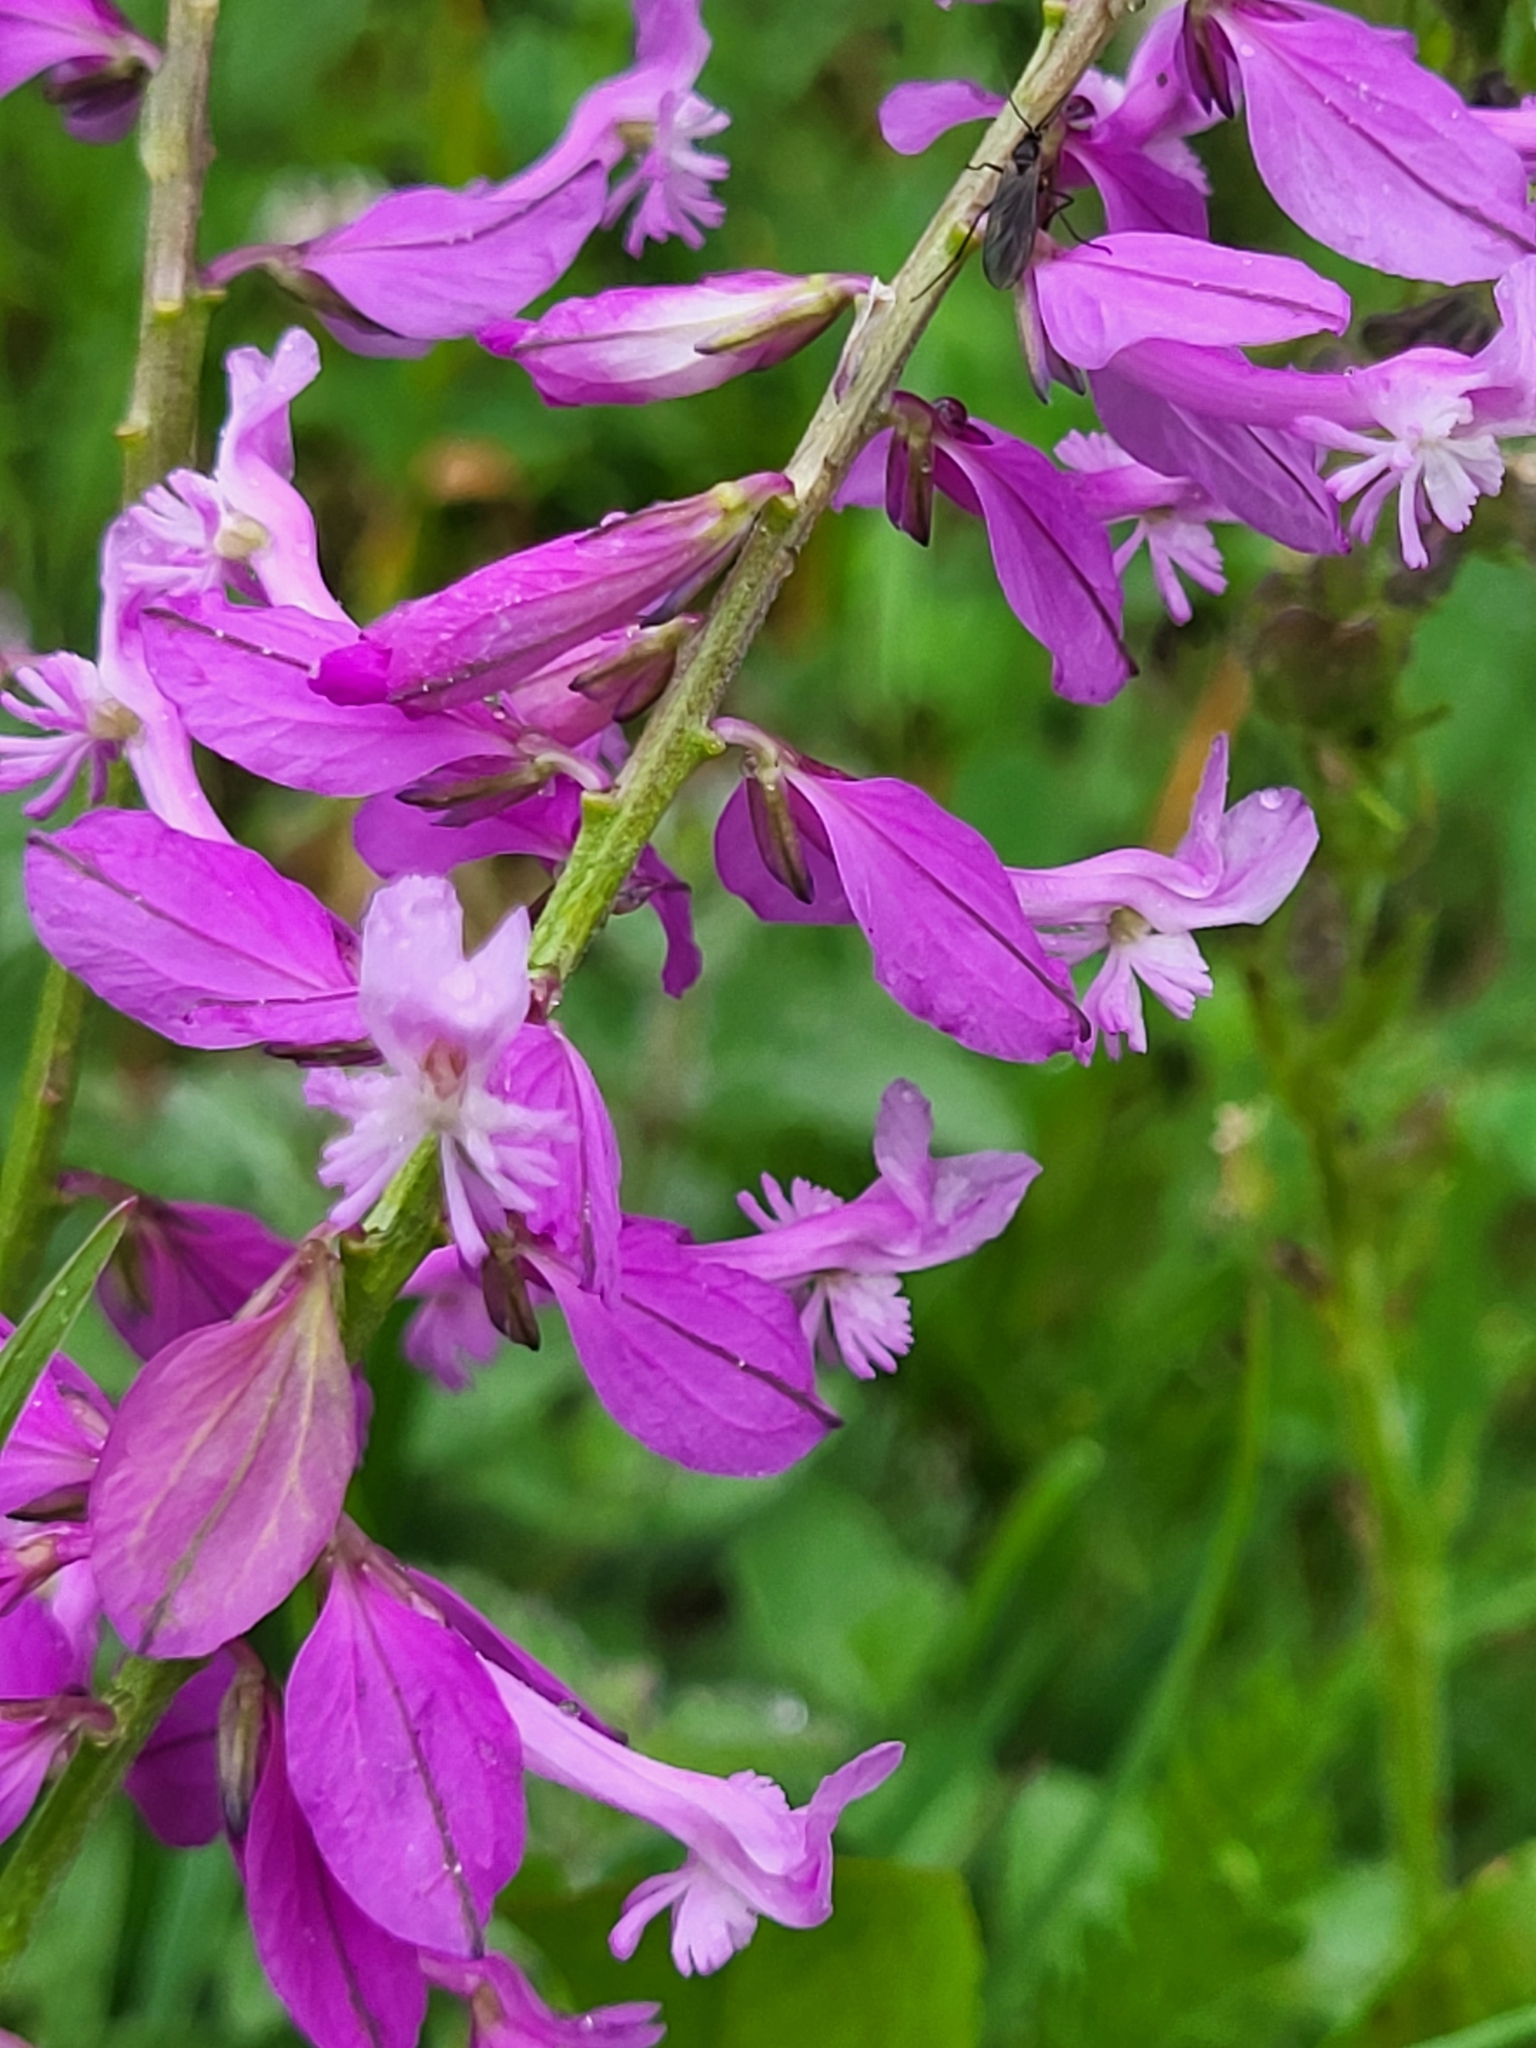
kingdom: Plantae
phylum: Tracheophyta
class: Magnoliopsida
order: Fabales
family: Polygalaceae
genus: Polygala
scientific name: Polygala major
